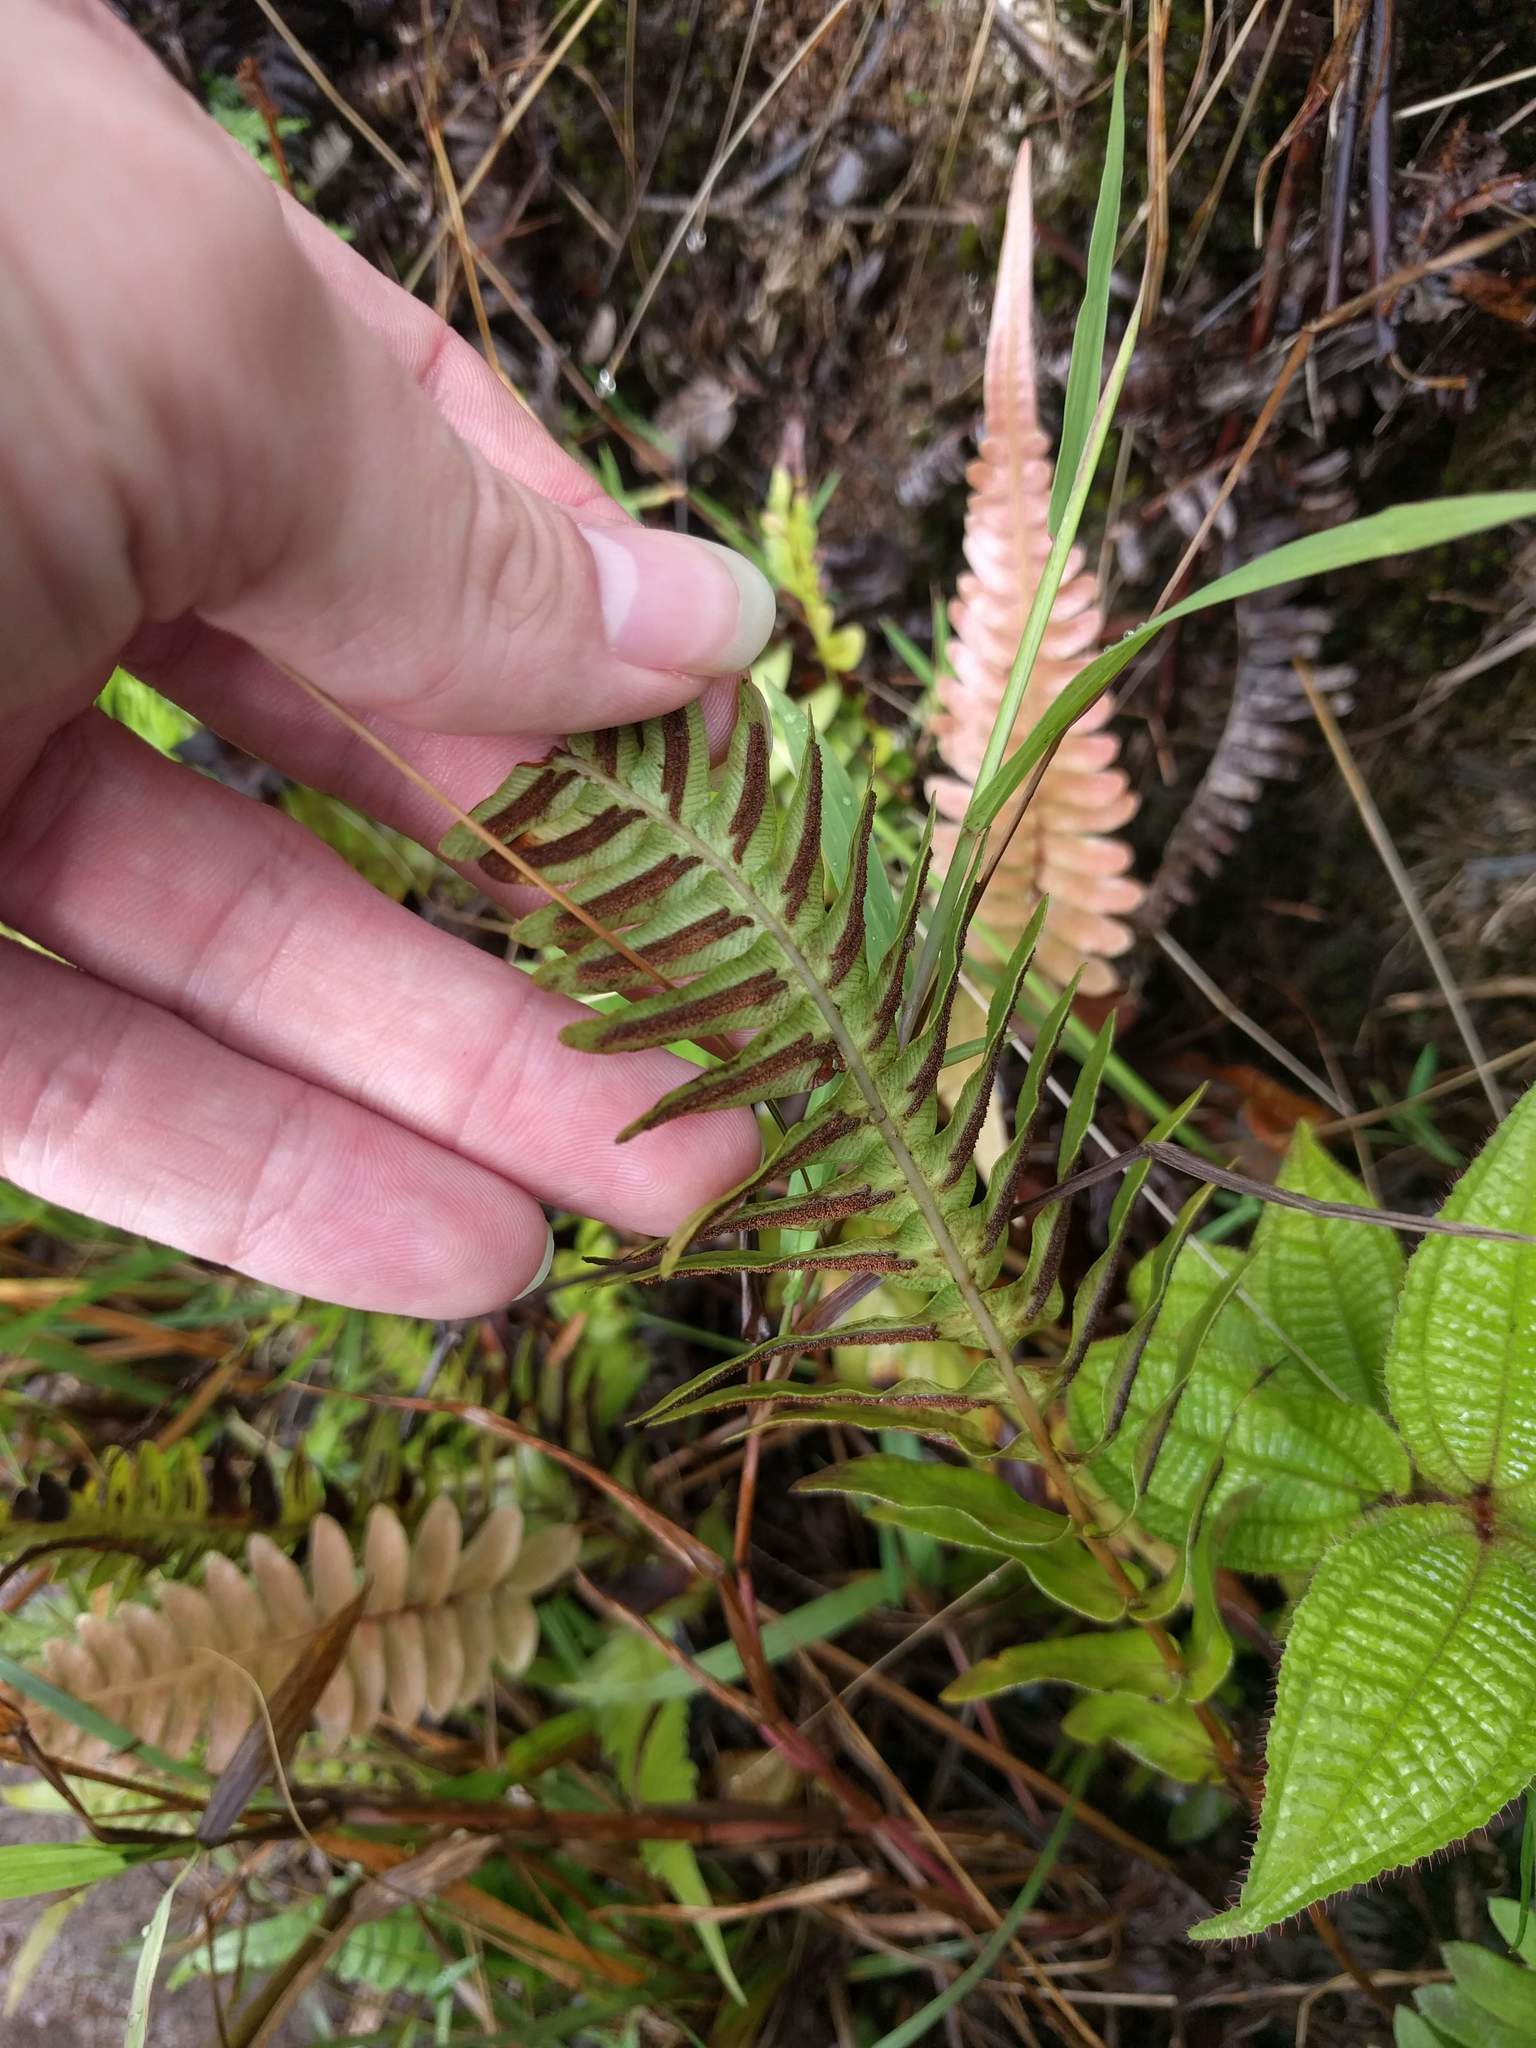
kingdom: Plantae
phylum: Tracheophyta
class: Polypodiopsida
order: Polypodiales
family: Blechnaceae
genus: Blechnum
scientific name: Blechnum appendiculatum
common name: Palm fern
